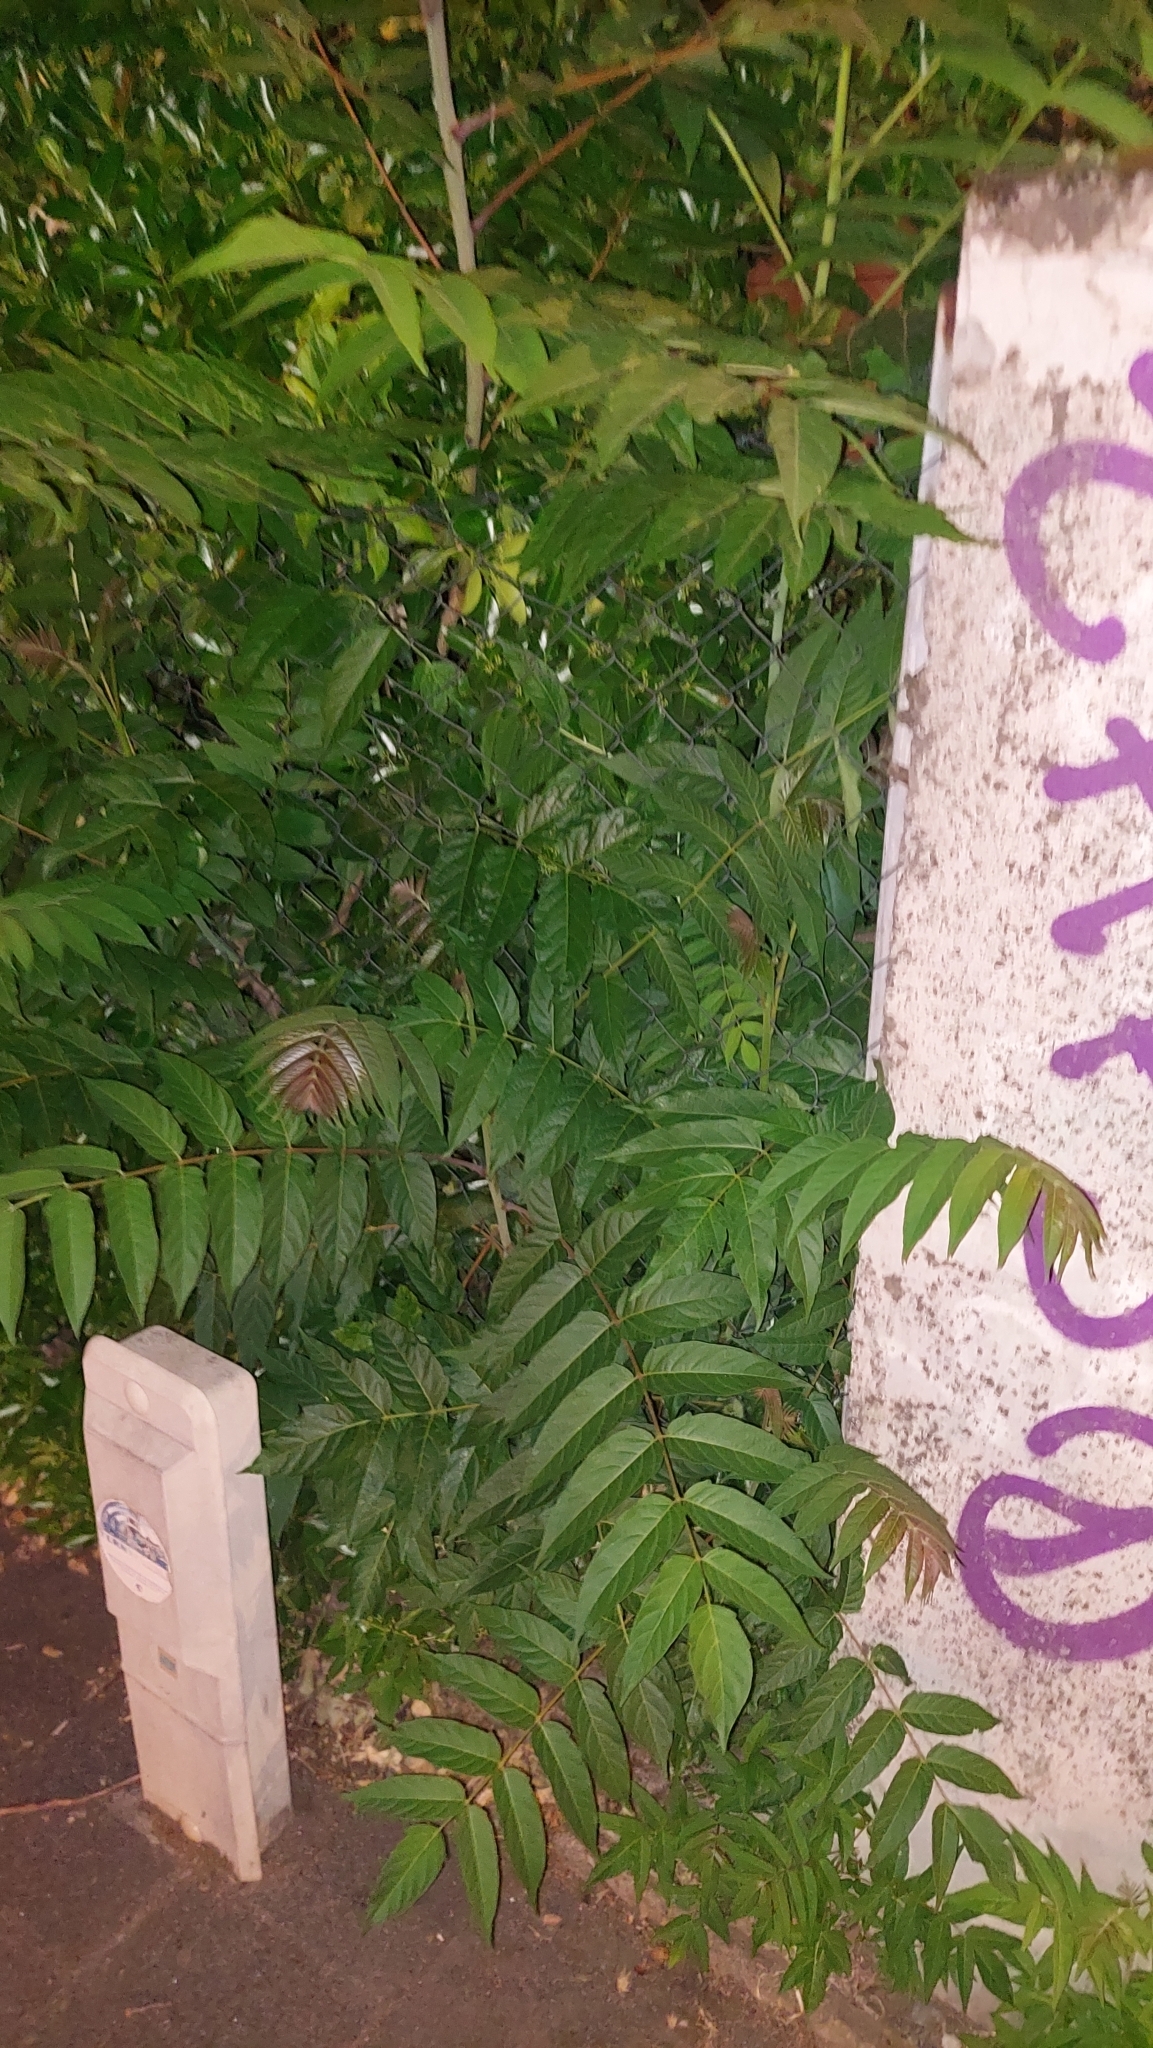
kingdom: Plantae
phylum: Tracheophyta
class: Magnoliopsida
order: Sapindales
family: Simaroubaceae
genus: Ailanthus
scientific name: Ailanthus altissima
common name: Tree-of-heaven
